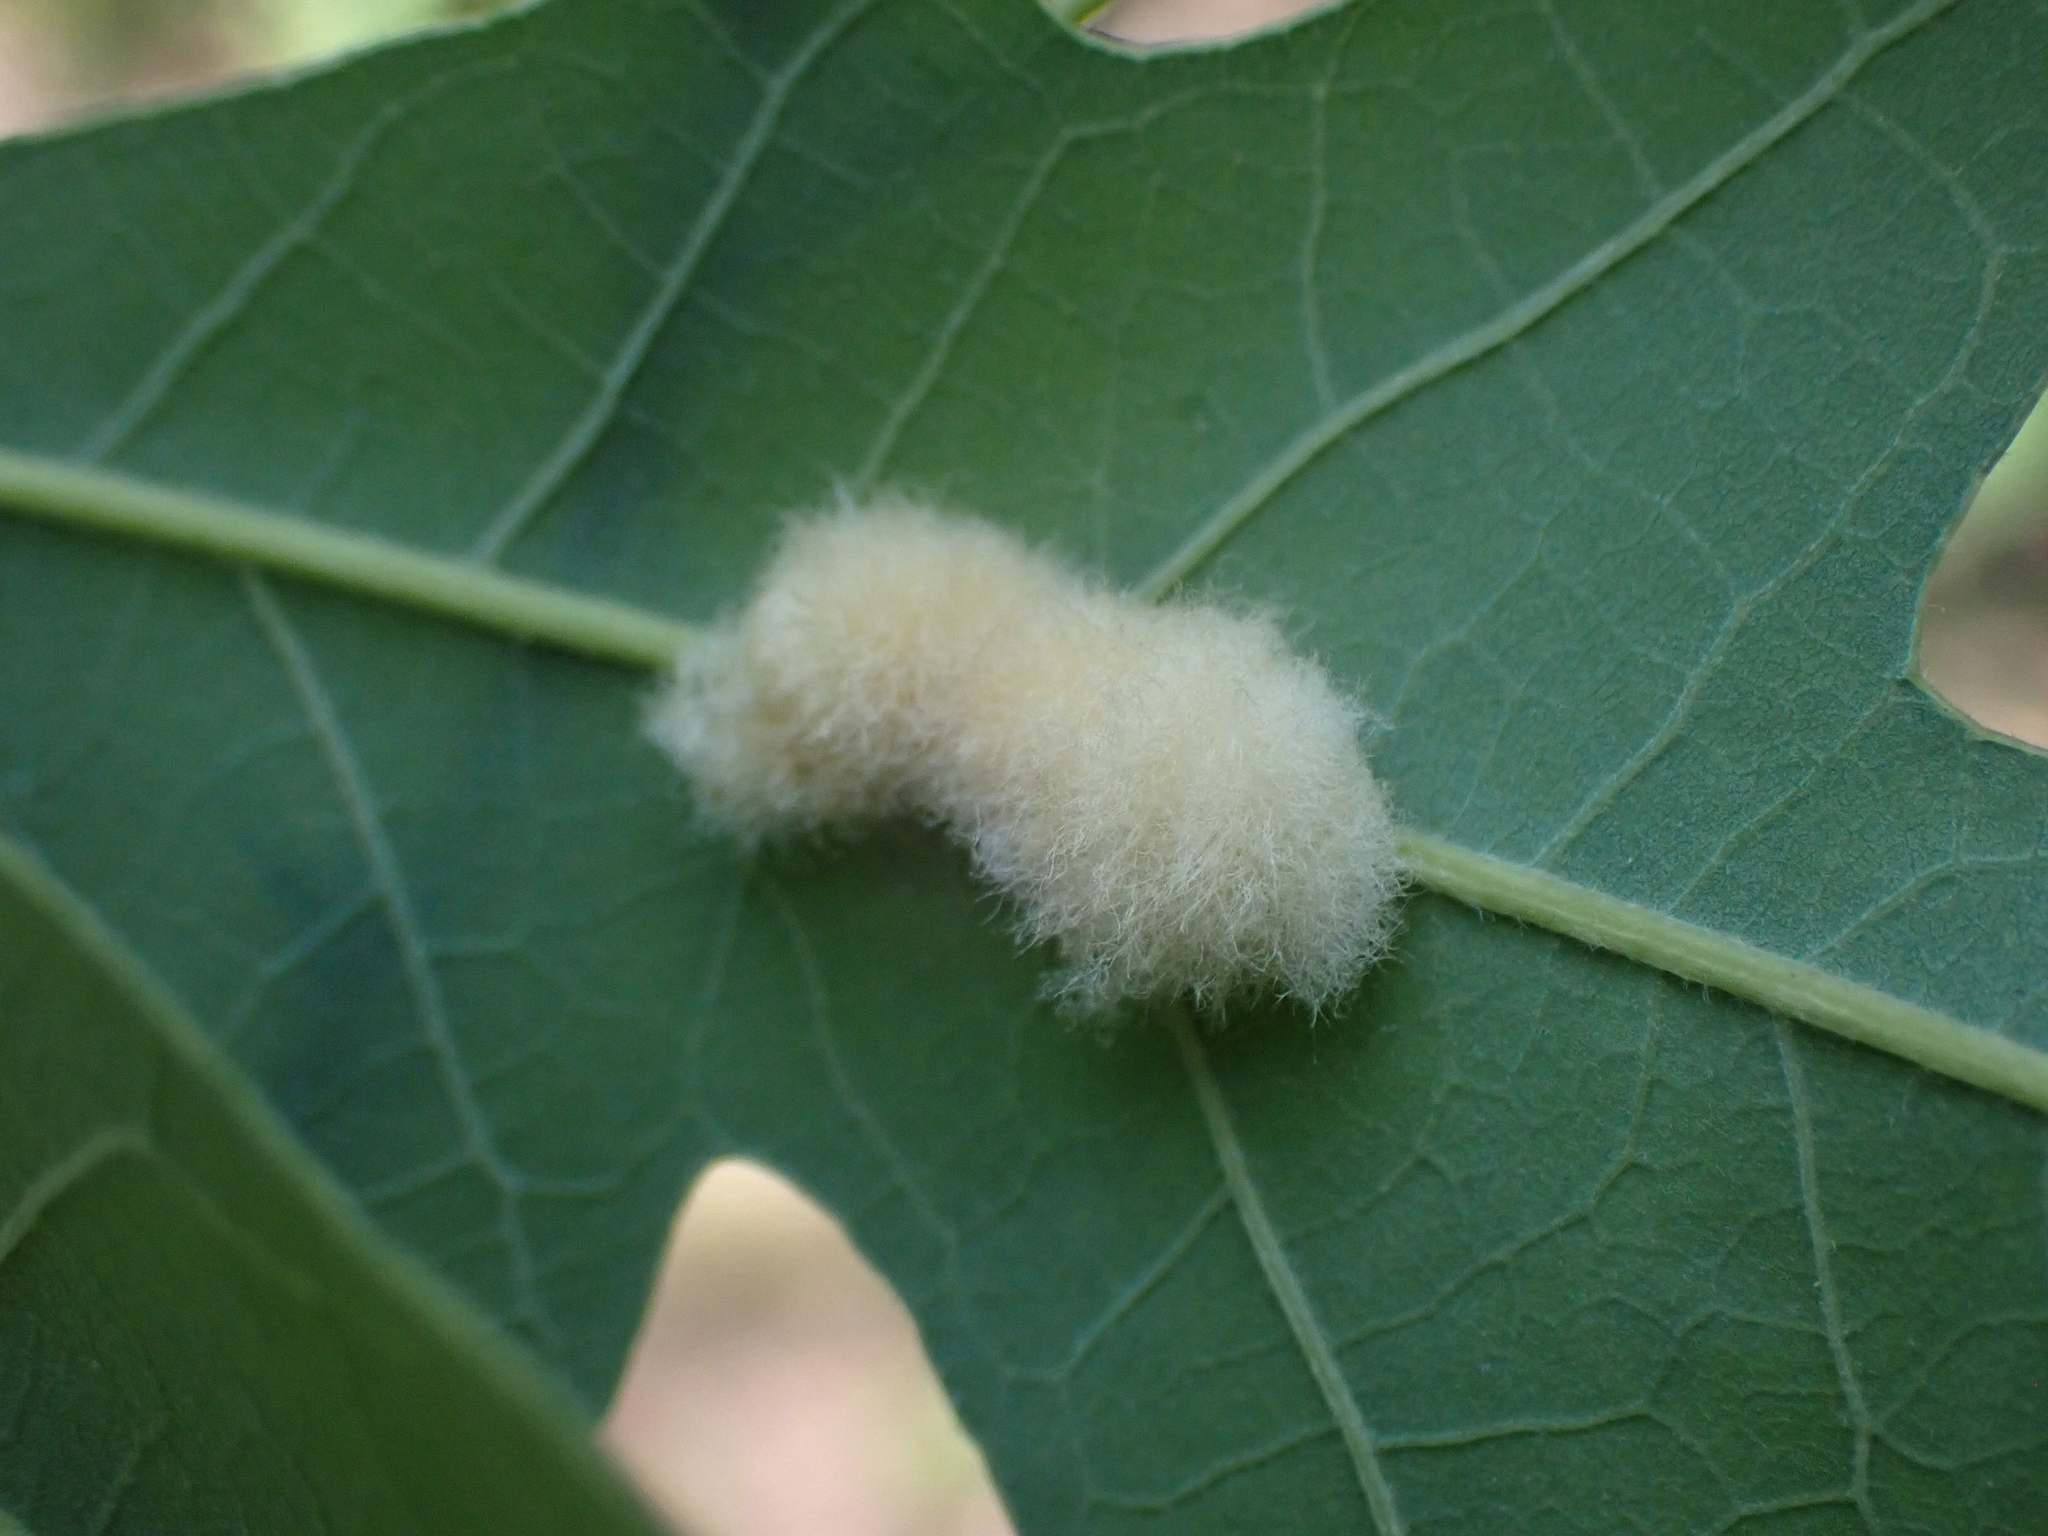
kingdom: Animalia
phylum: Arthropoda
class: Insecta
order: Hymenoptera
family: Cynipidae
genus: Andricus
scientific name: Andricus Druon ignotum
